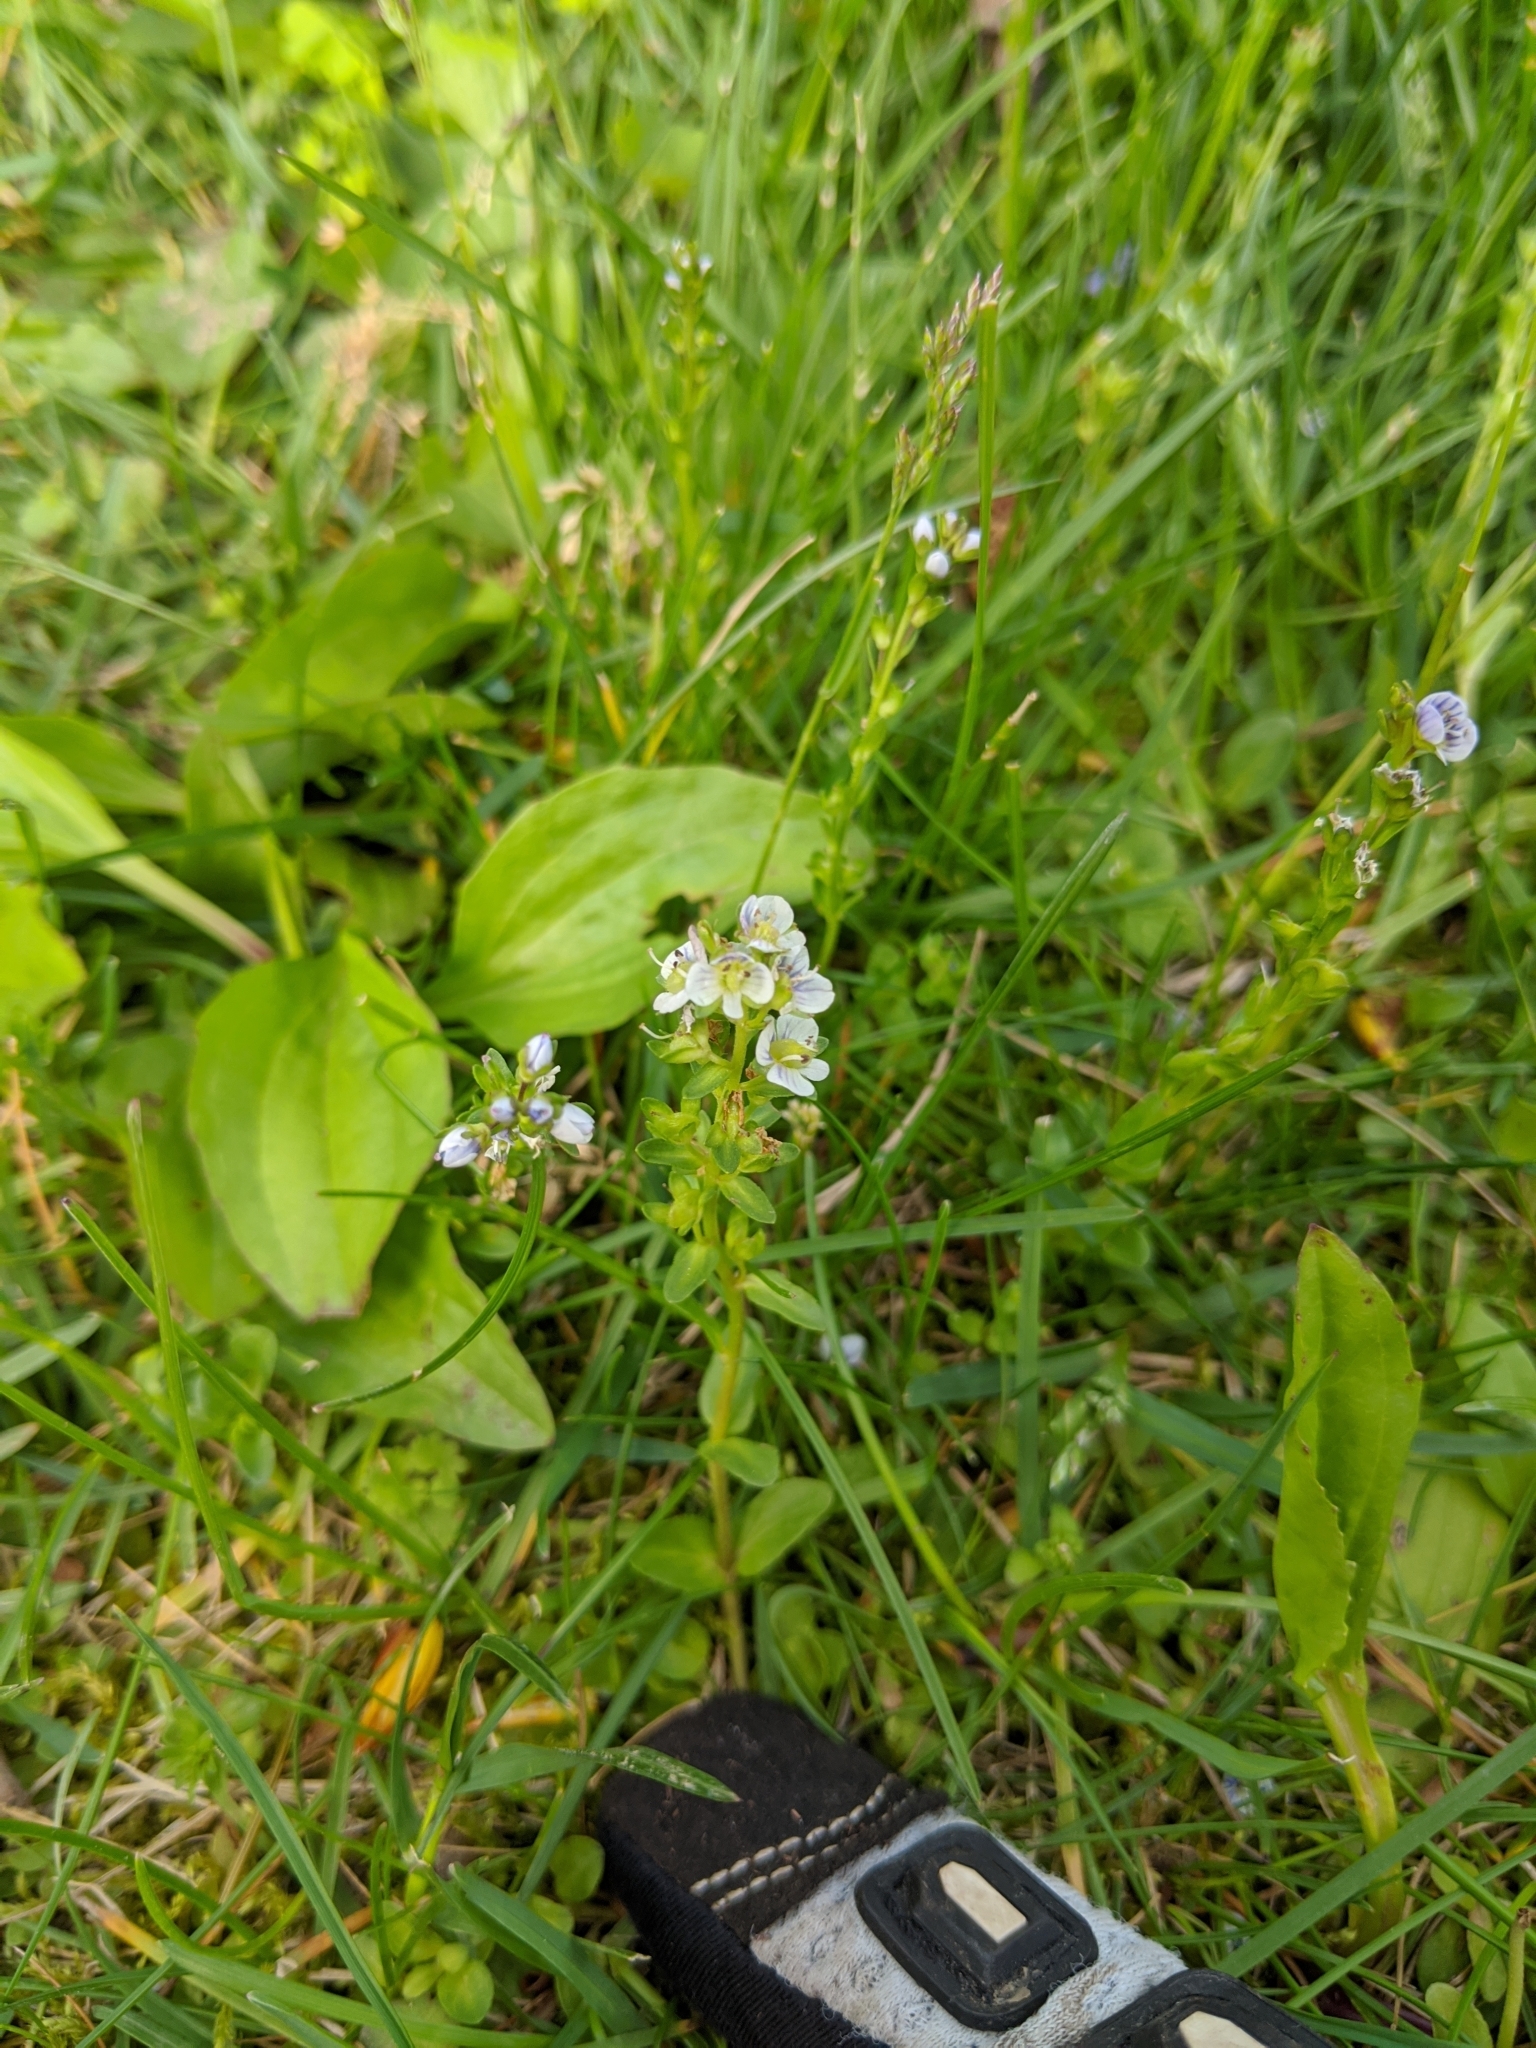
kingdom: Plantae
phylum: Tracheophyta
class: Magnoliopsida
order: Lamiales
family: Plantaginaceae
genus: Veronica
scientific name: Veronica serpyllifolia
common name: Thyme-leaved speedwell
